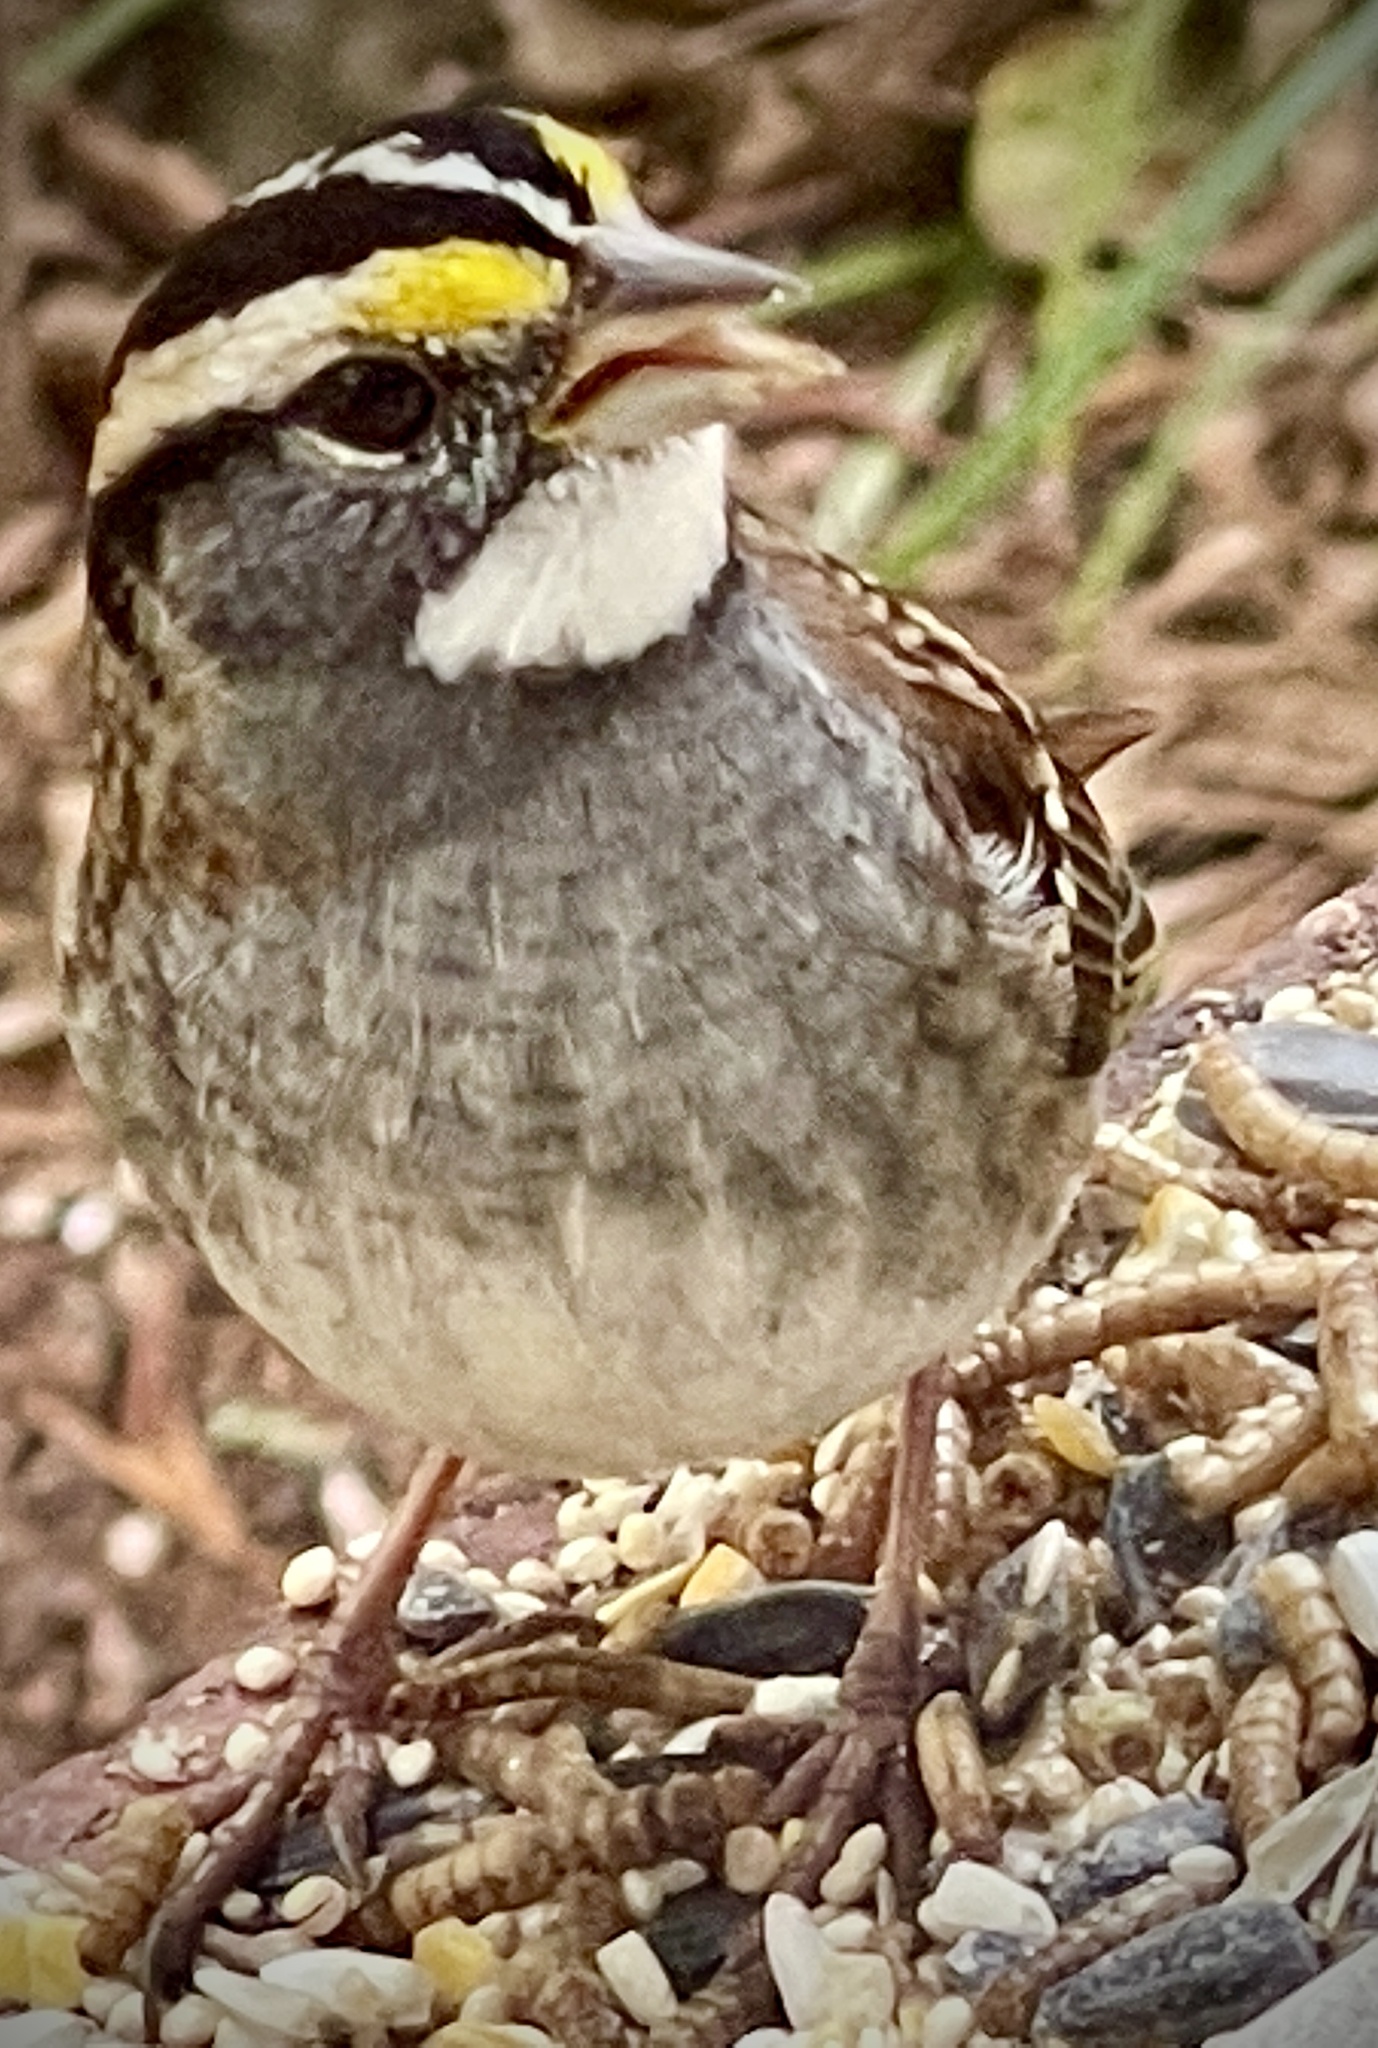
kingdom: Animalia
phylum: Chordata
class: Aves
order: Passeriformes
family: Passerellidae
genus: Zonotrichia
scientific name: Zonotrichia albicollis
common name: White-throated sparrow
